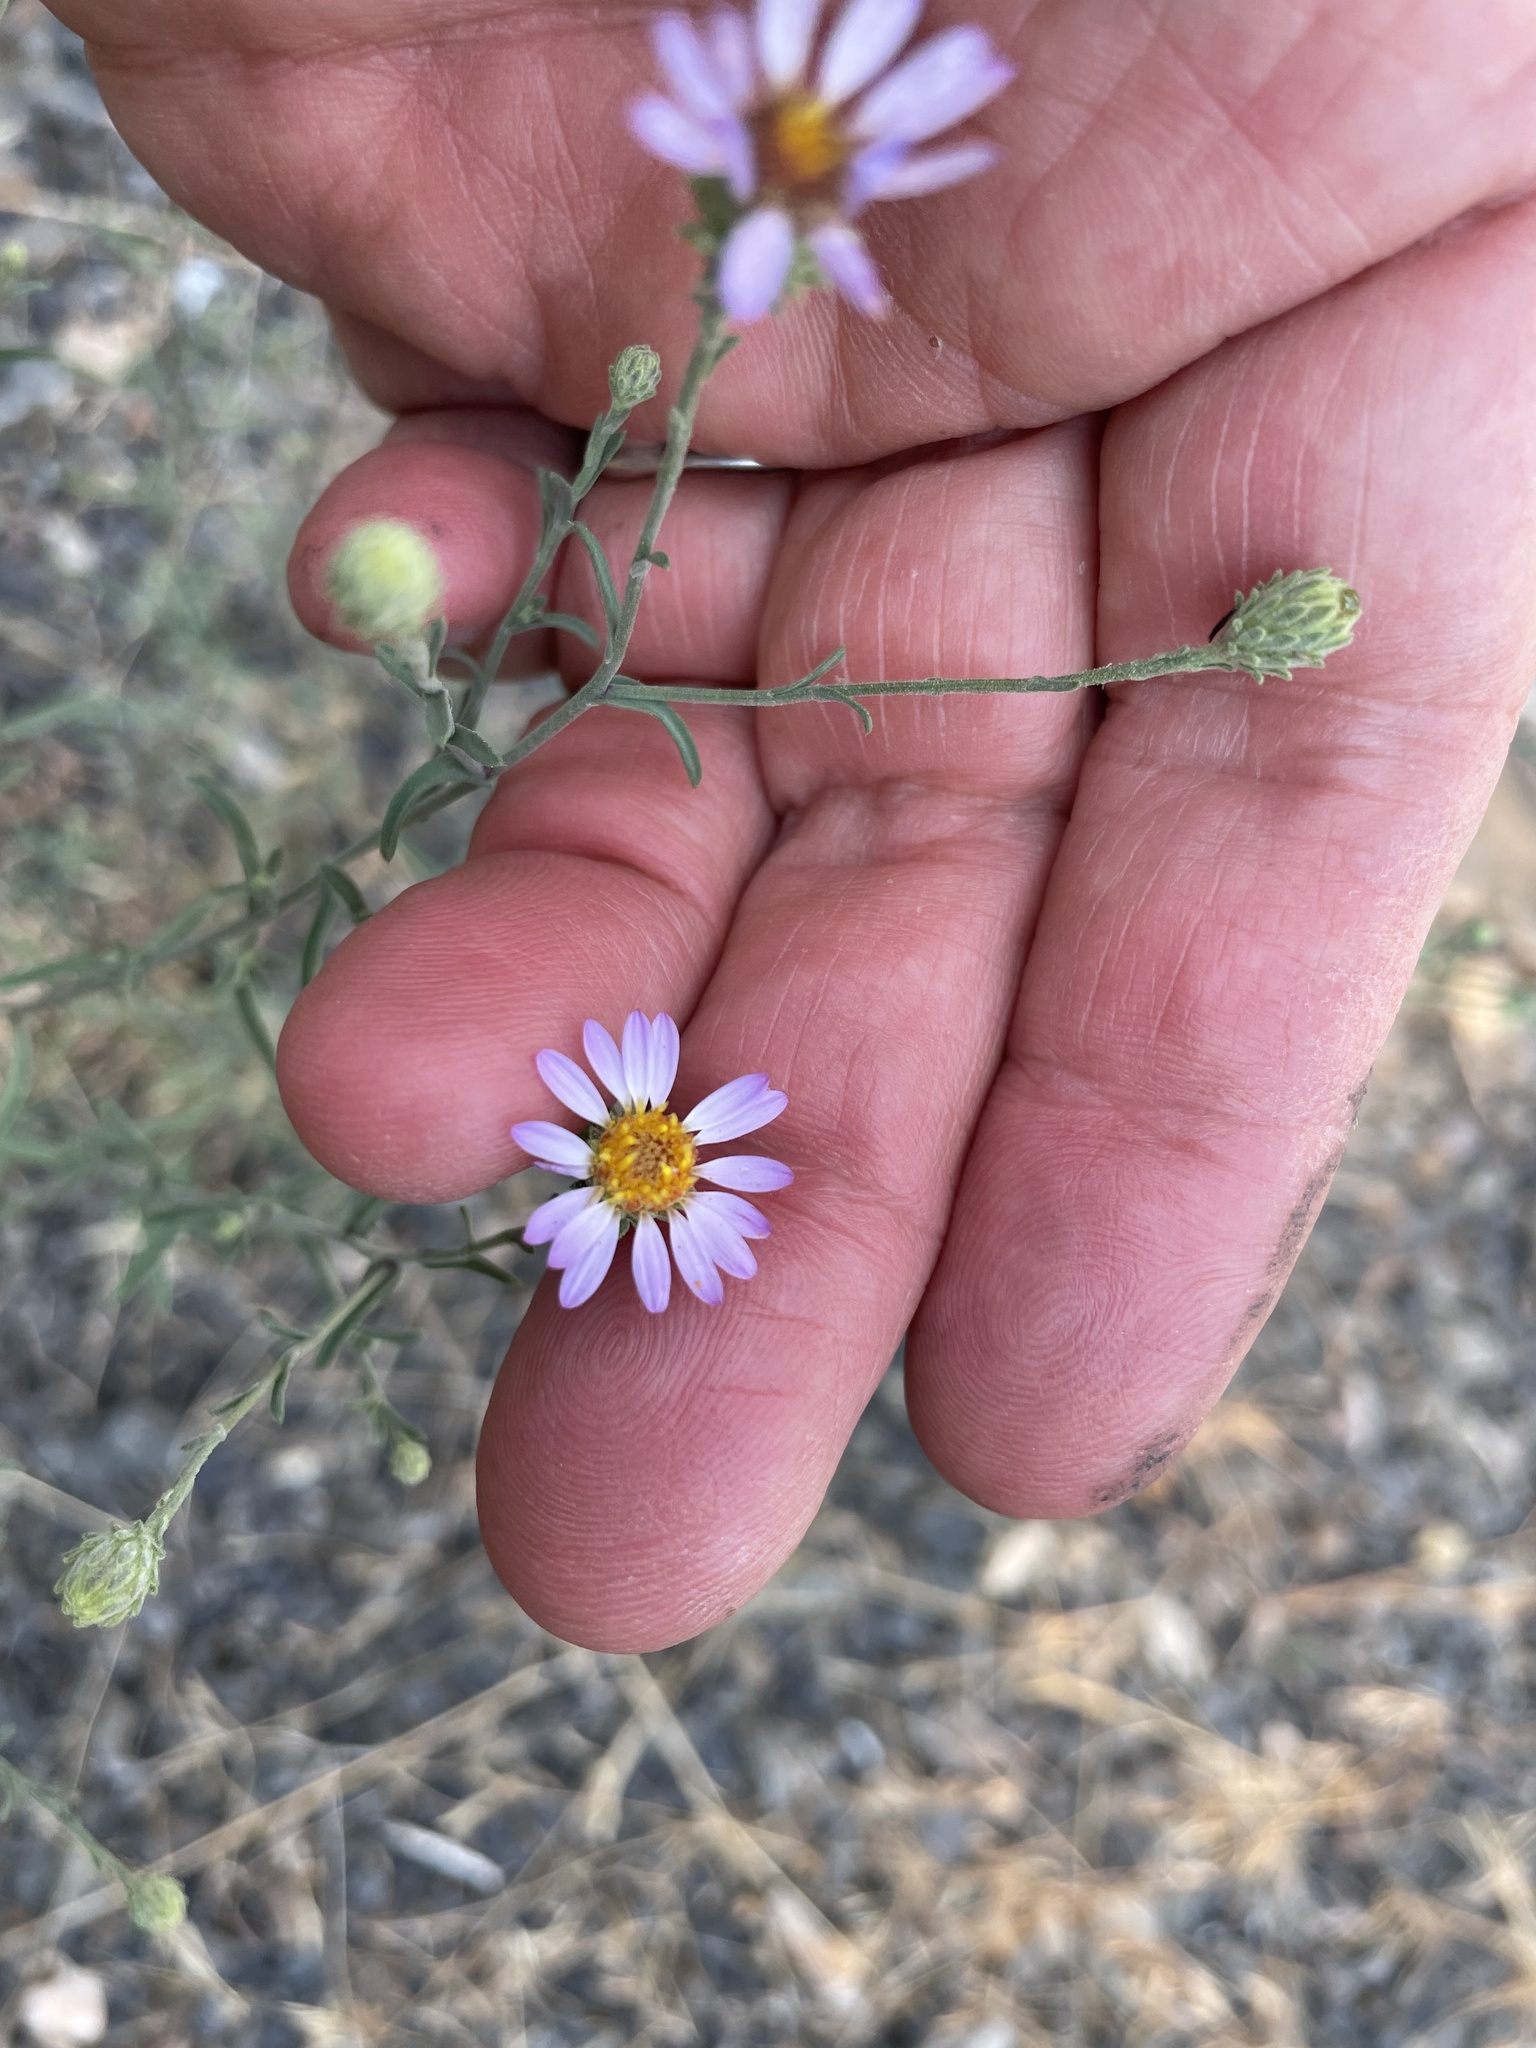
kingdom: Plantae
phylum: Tracheophyta
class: Magnoliopsida
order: Asterales
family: Asteraceae
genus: Dieteria
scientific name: Dieteria canescens
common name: Hoary-aster
